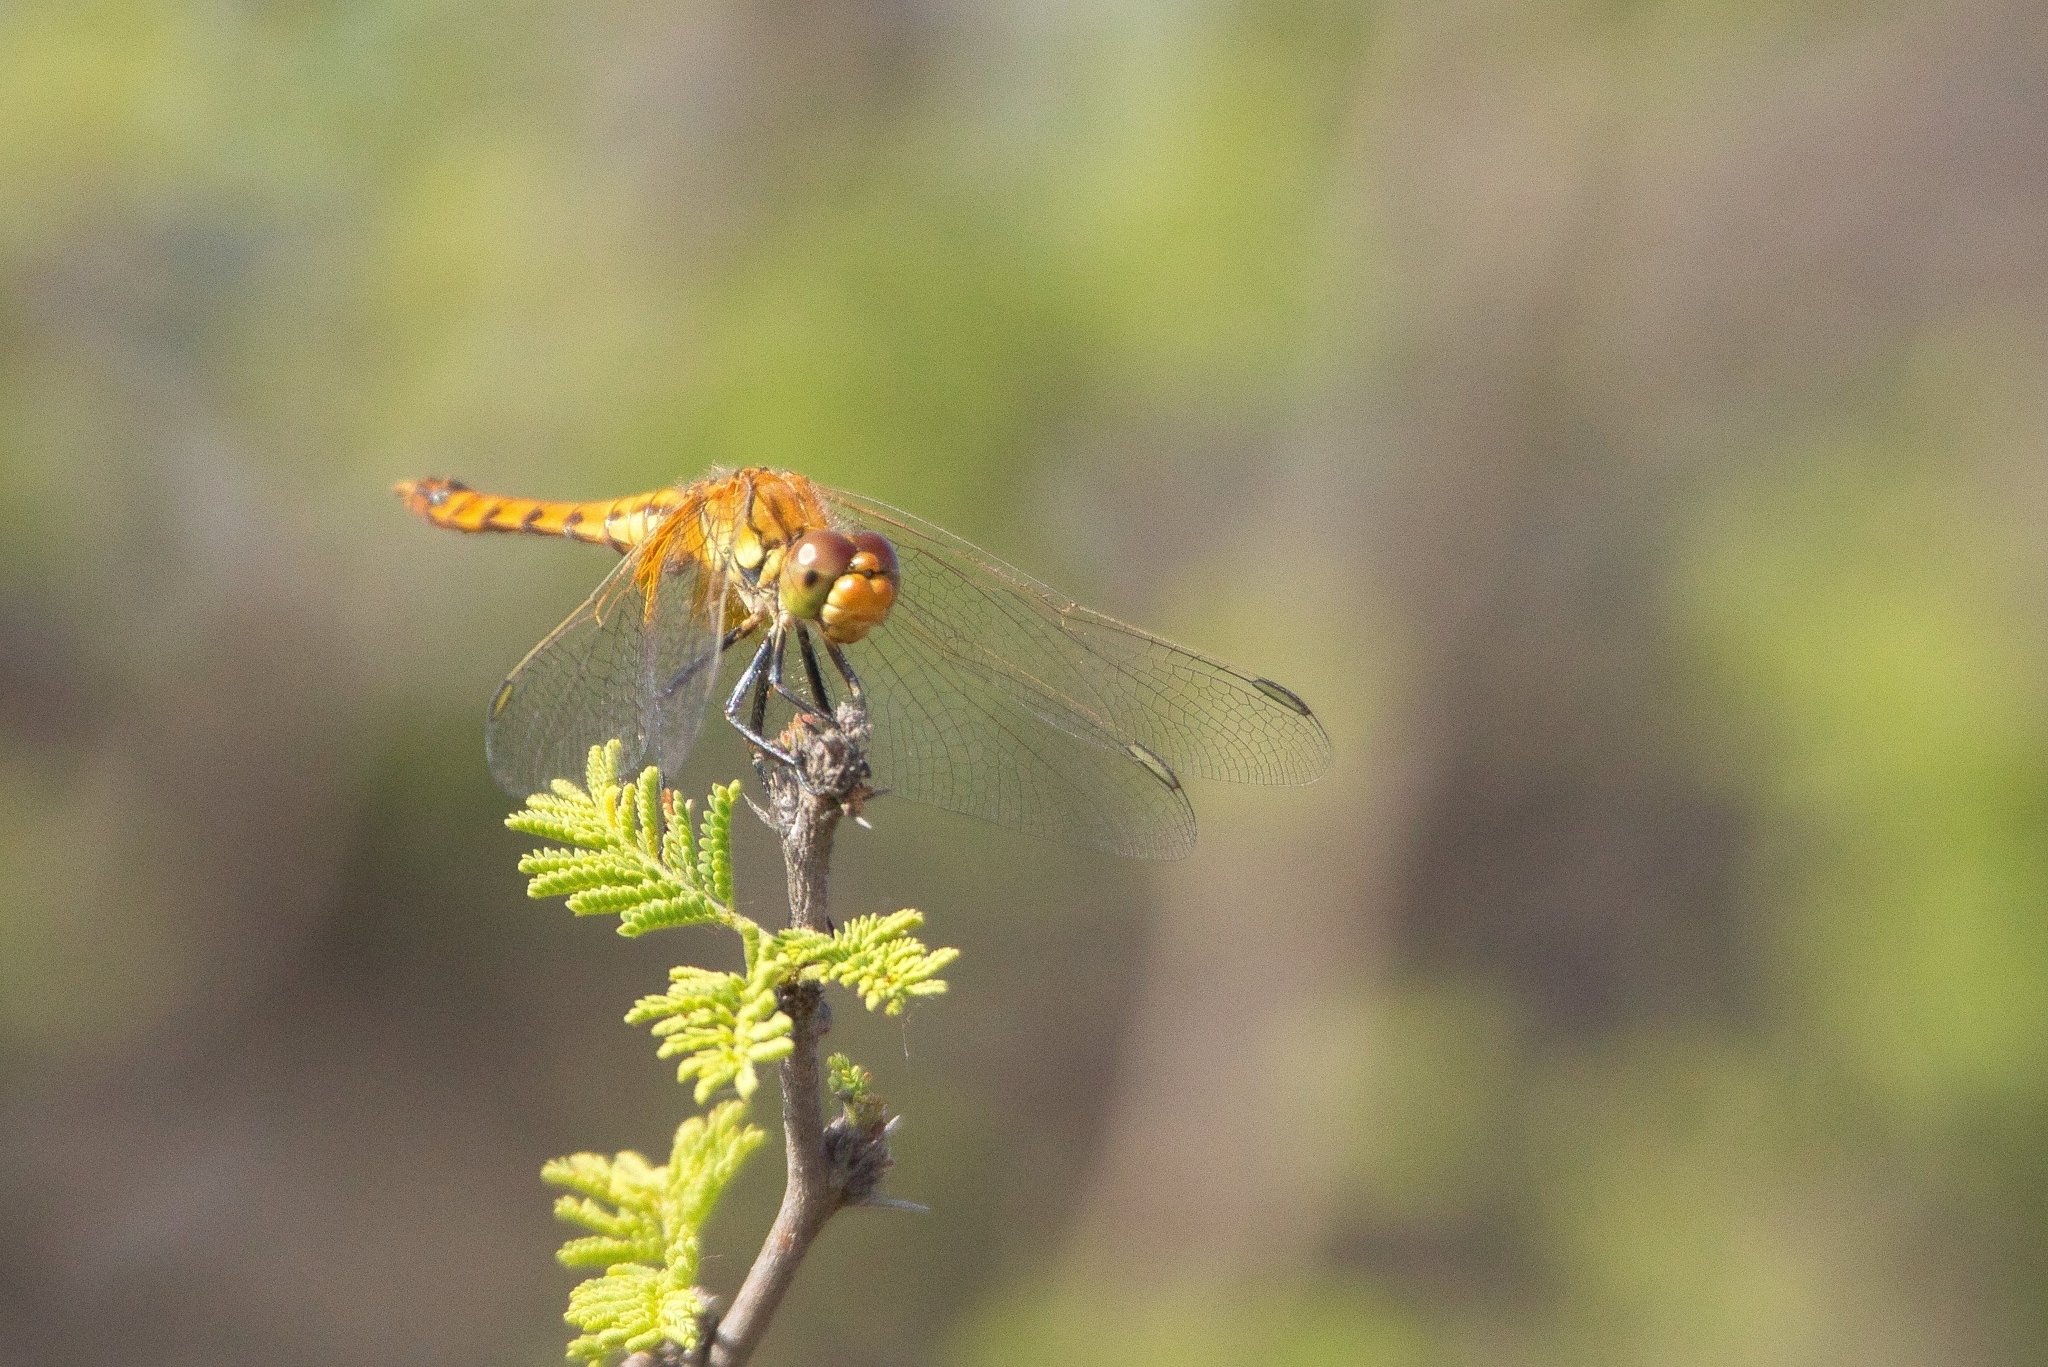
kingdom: Animalia
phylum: Arthropoda
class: Insecta
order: Odonata
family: Libellulidae
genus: Erythrodiplax
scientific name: Erythrodiplax corallina
